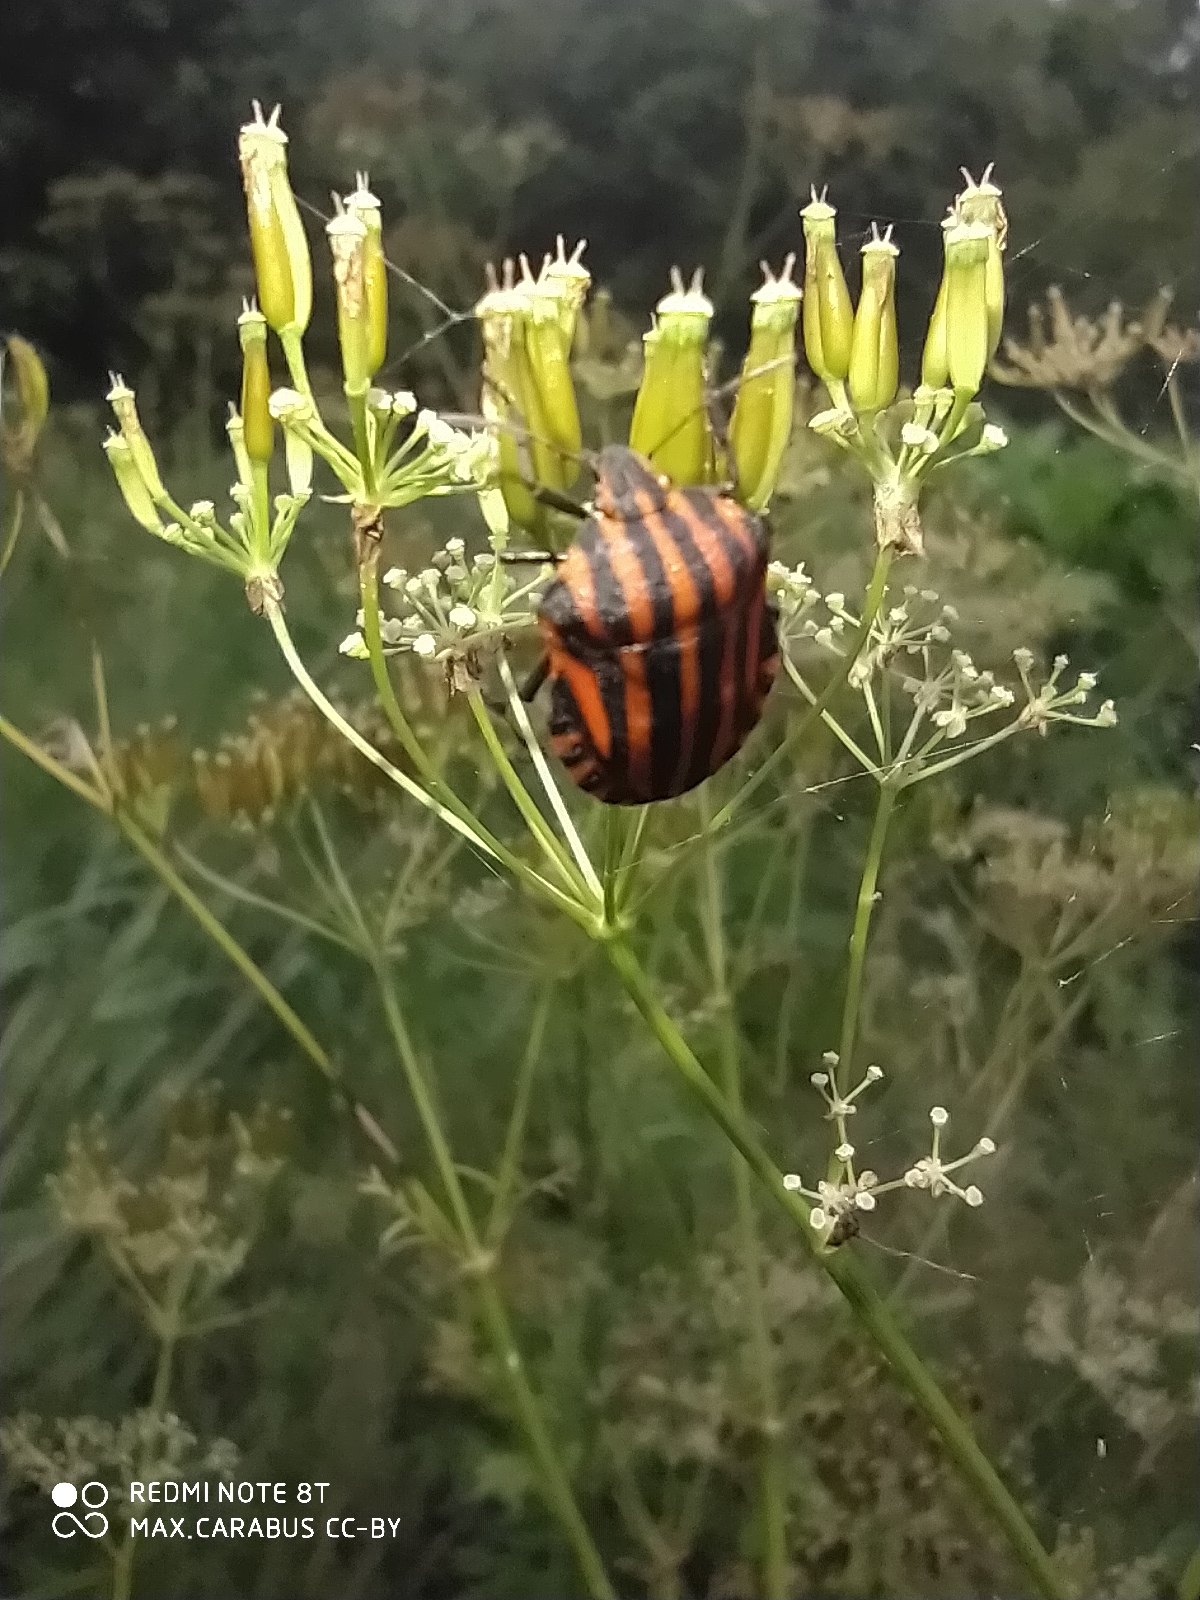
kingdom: Animalia
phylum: Arthropoda
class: Insecta
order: Hemiptera
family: Pentatomidae
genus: Graphosoma
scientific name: Graphosoma italicum
